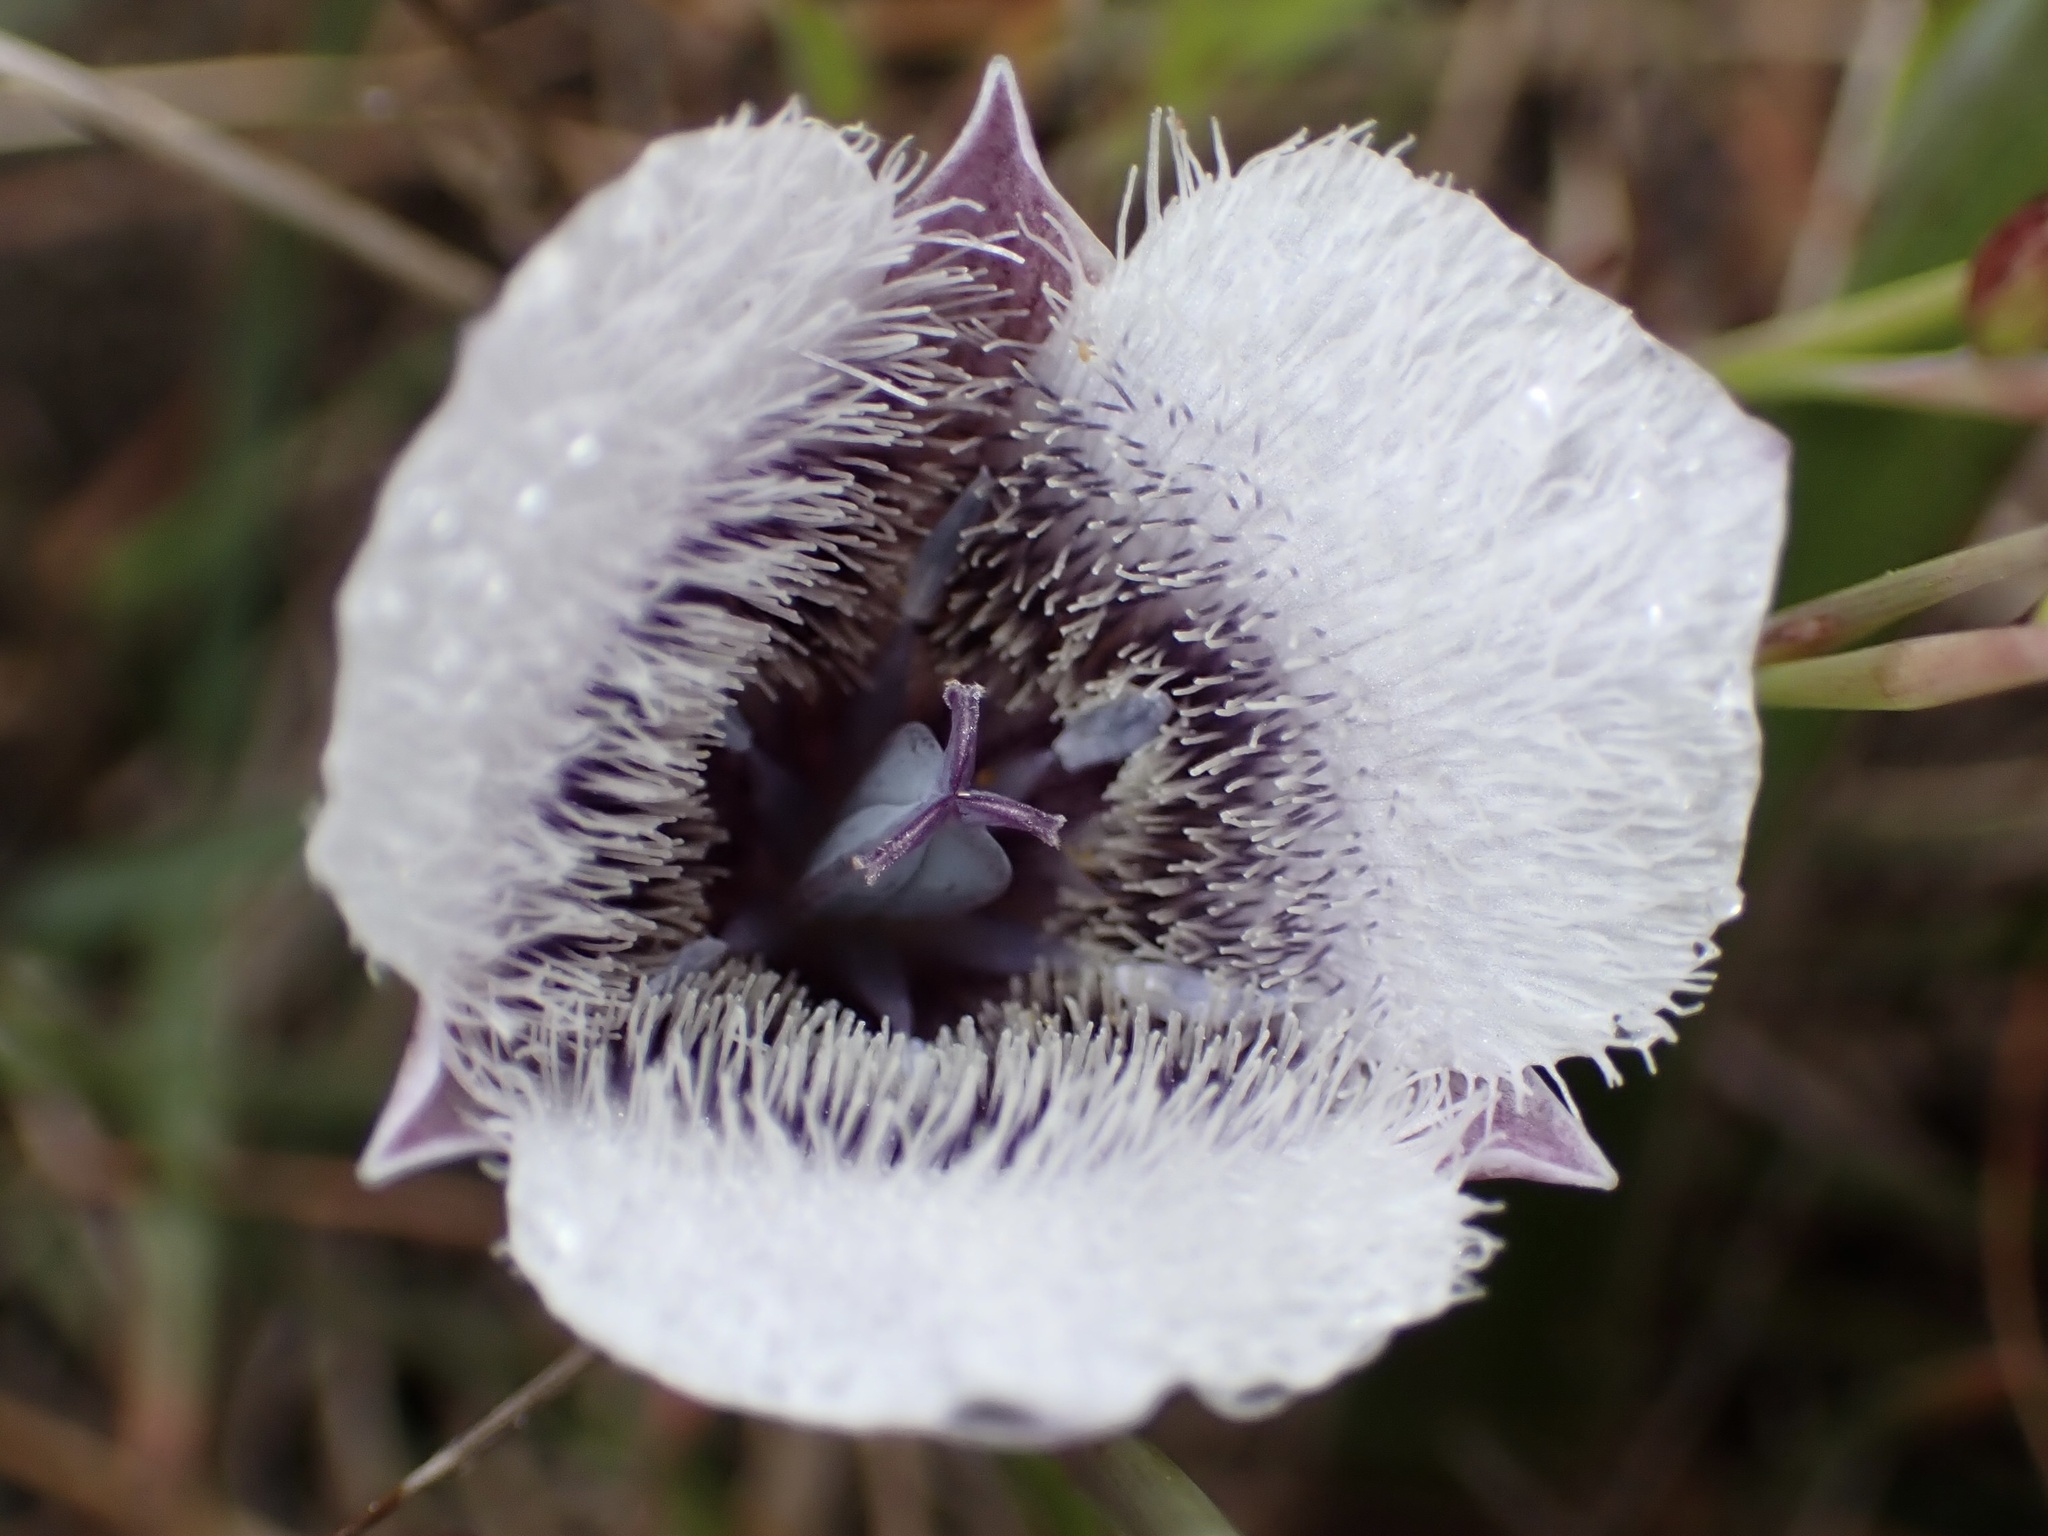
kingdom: Plantae
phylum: Tracheophyta
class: Liliopsida
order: Liliales
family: Liliaceae
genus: Calochortus
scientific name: Calochortus tolmiei
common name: Pussy-ears
